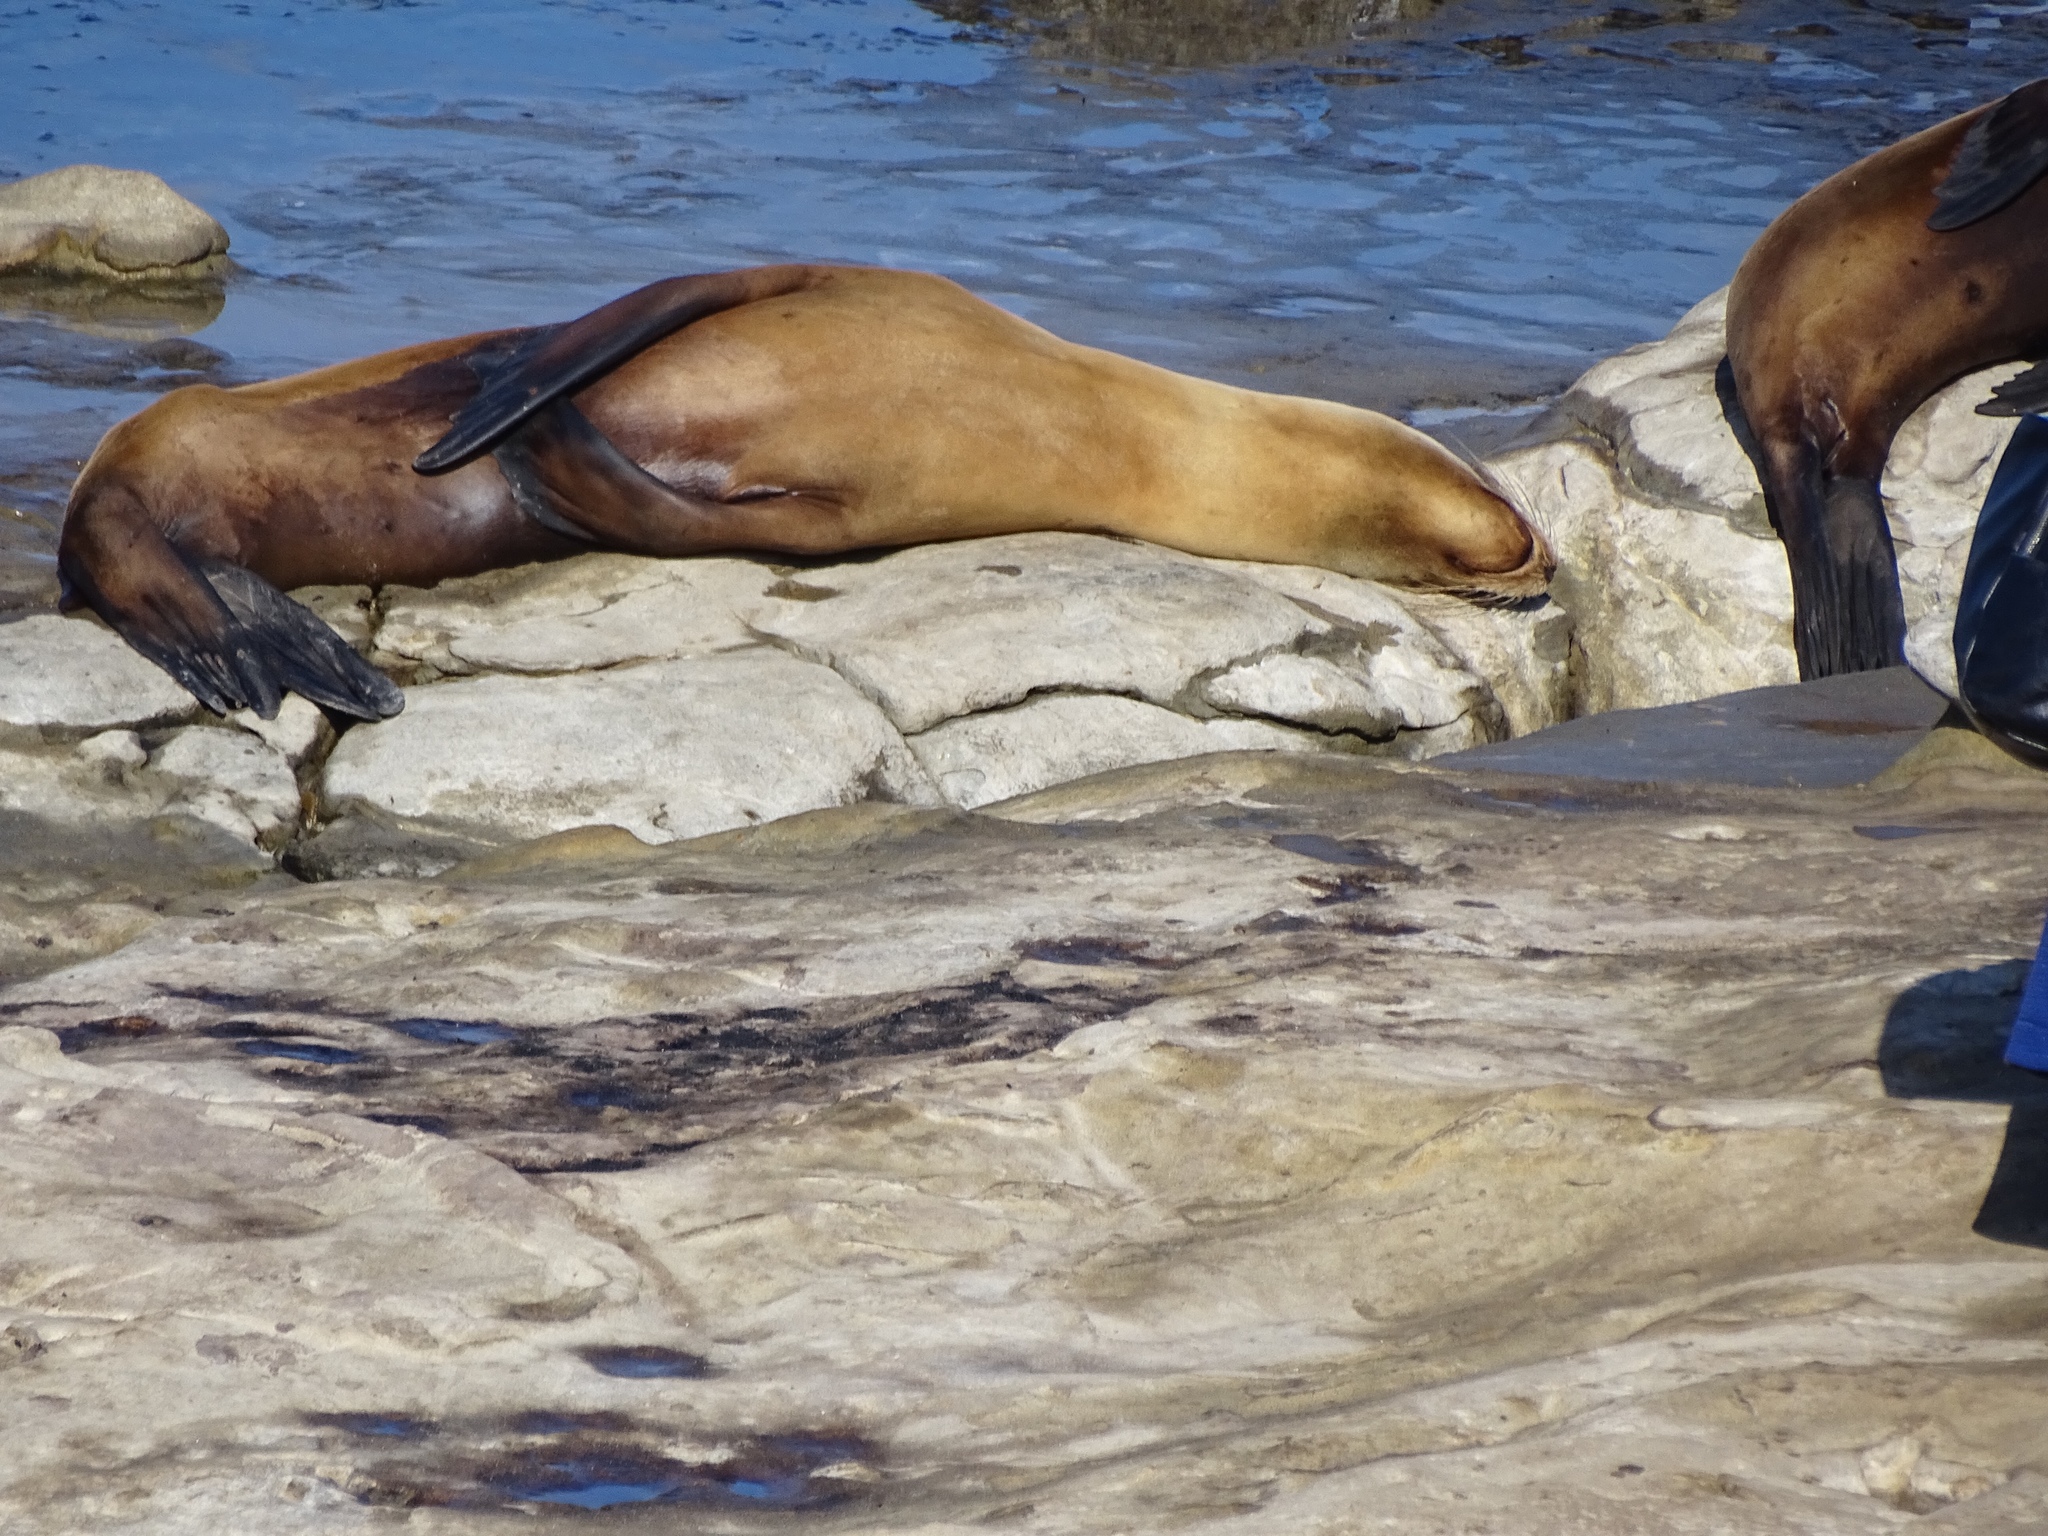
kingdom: Animalia
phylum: Chordata
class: Mammalia
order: Carnivora
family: Otariidae
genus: Zalophus
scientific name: Zalophus californianus
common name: California sea lion
